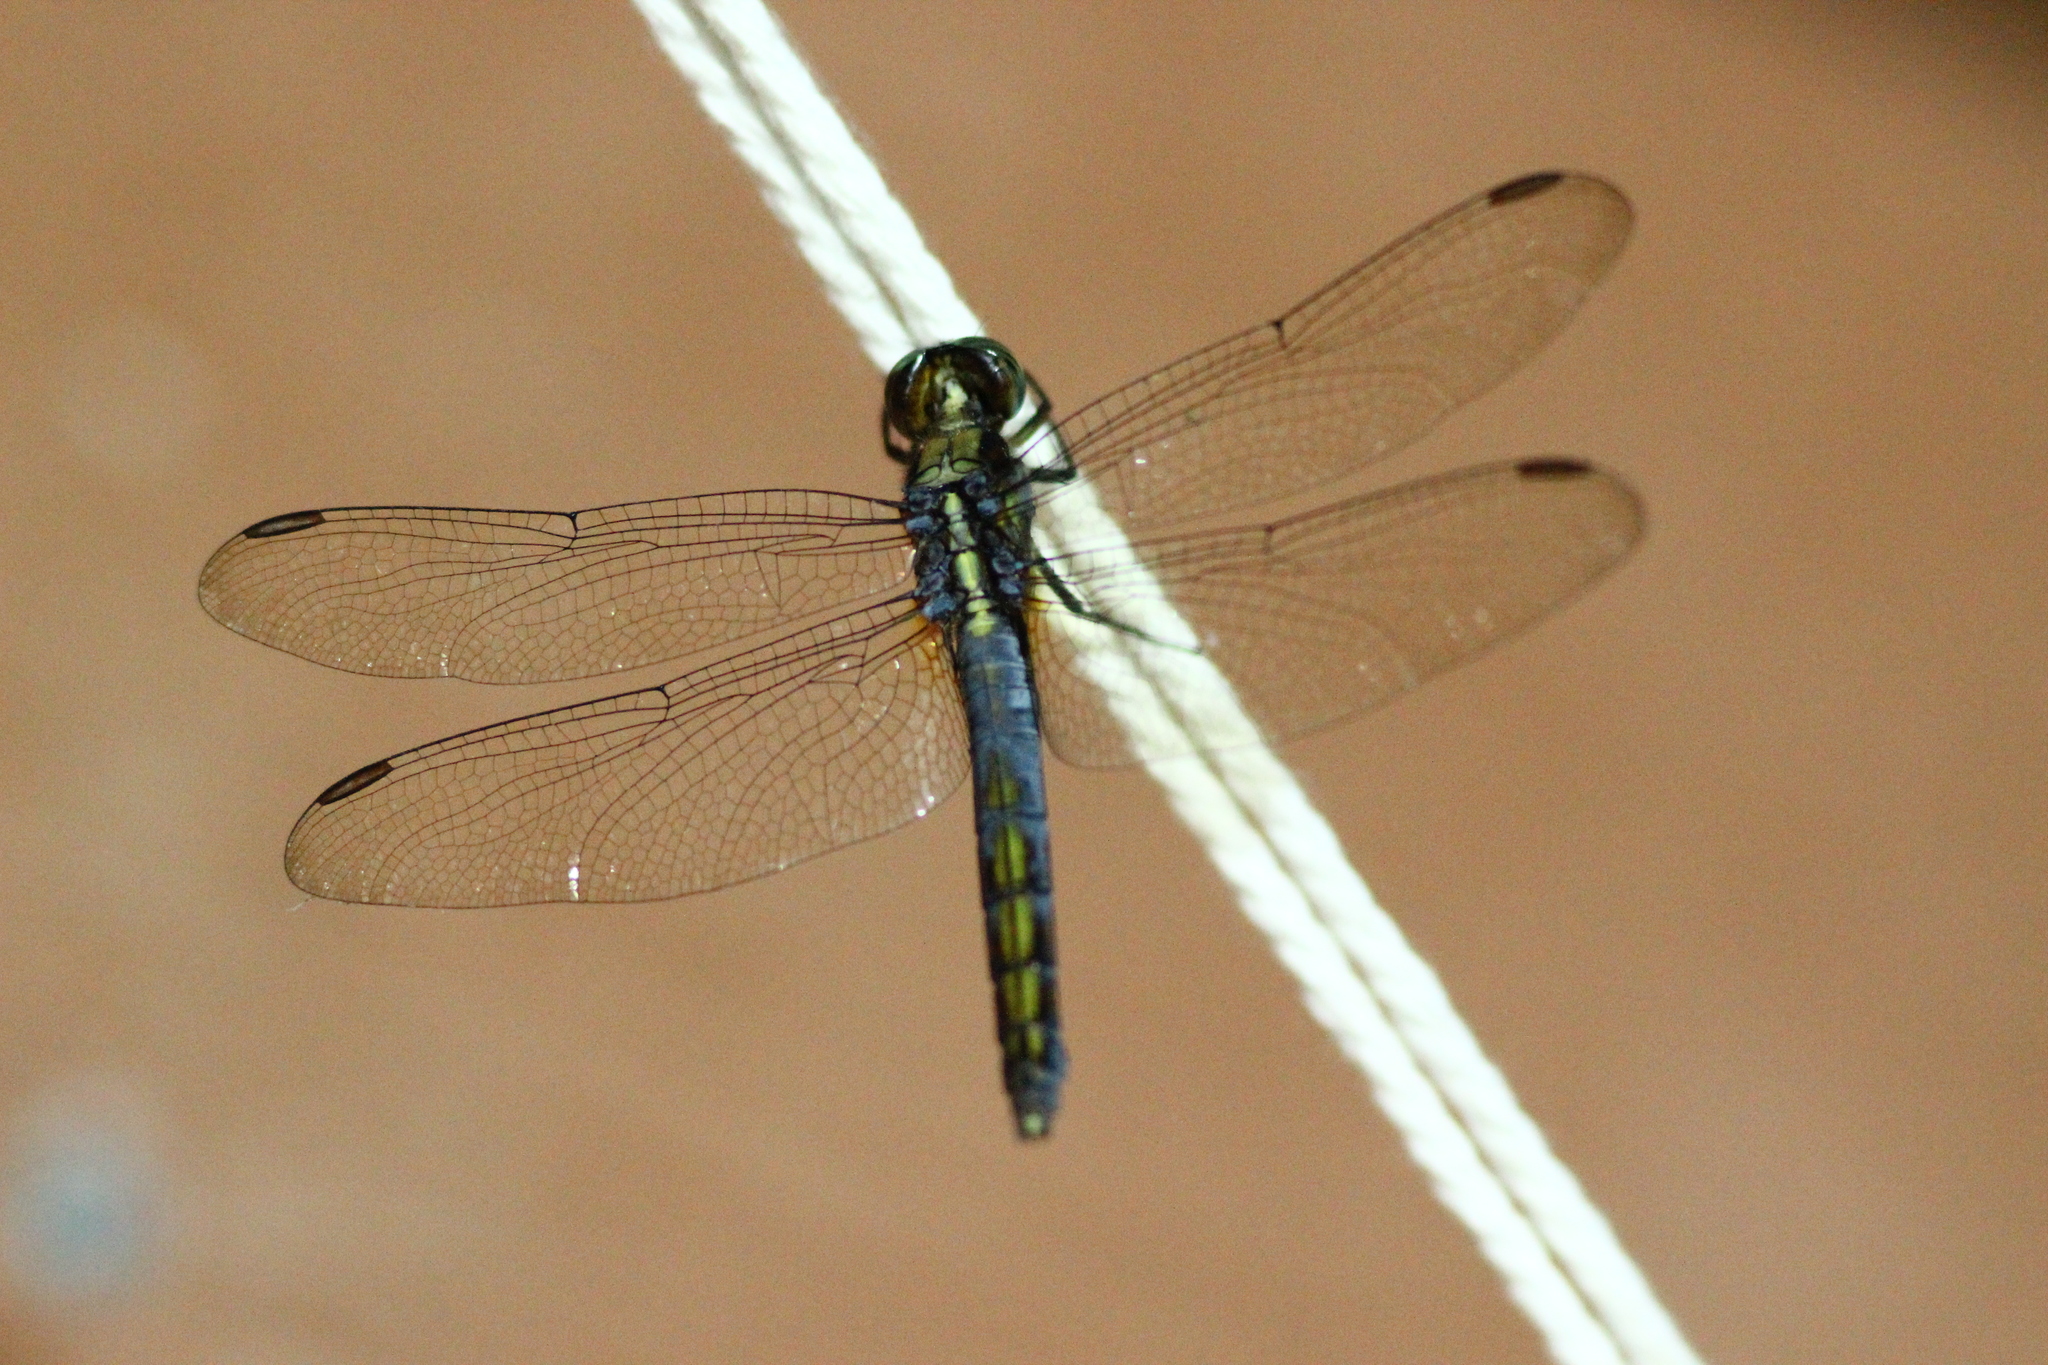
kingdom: Animalia
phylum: Arthropoda
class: Insecta
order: Odonata
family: Libellulidae
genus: Orthetrum
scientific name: Orthetrum glaucum
